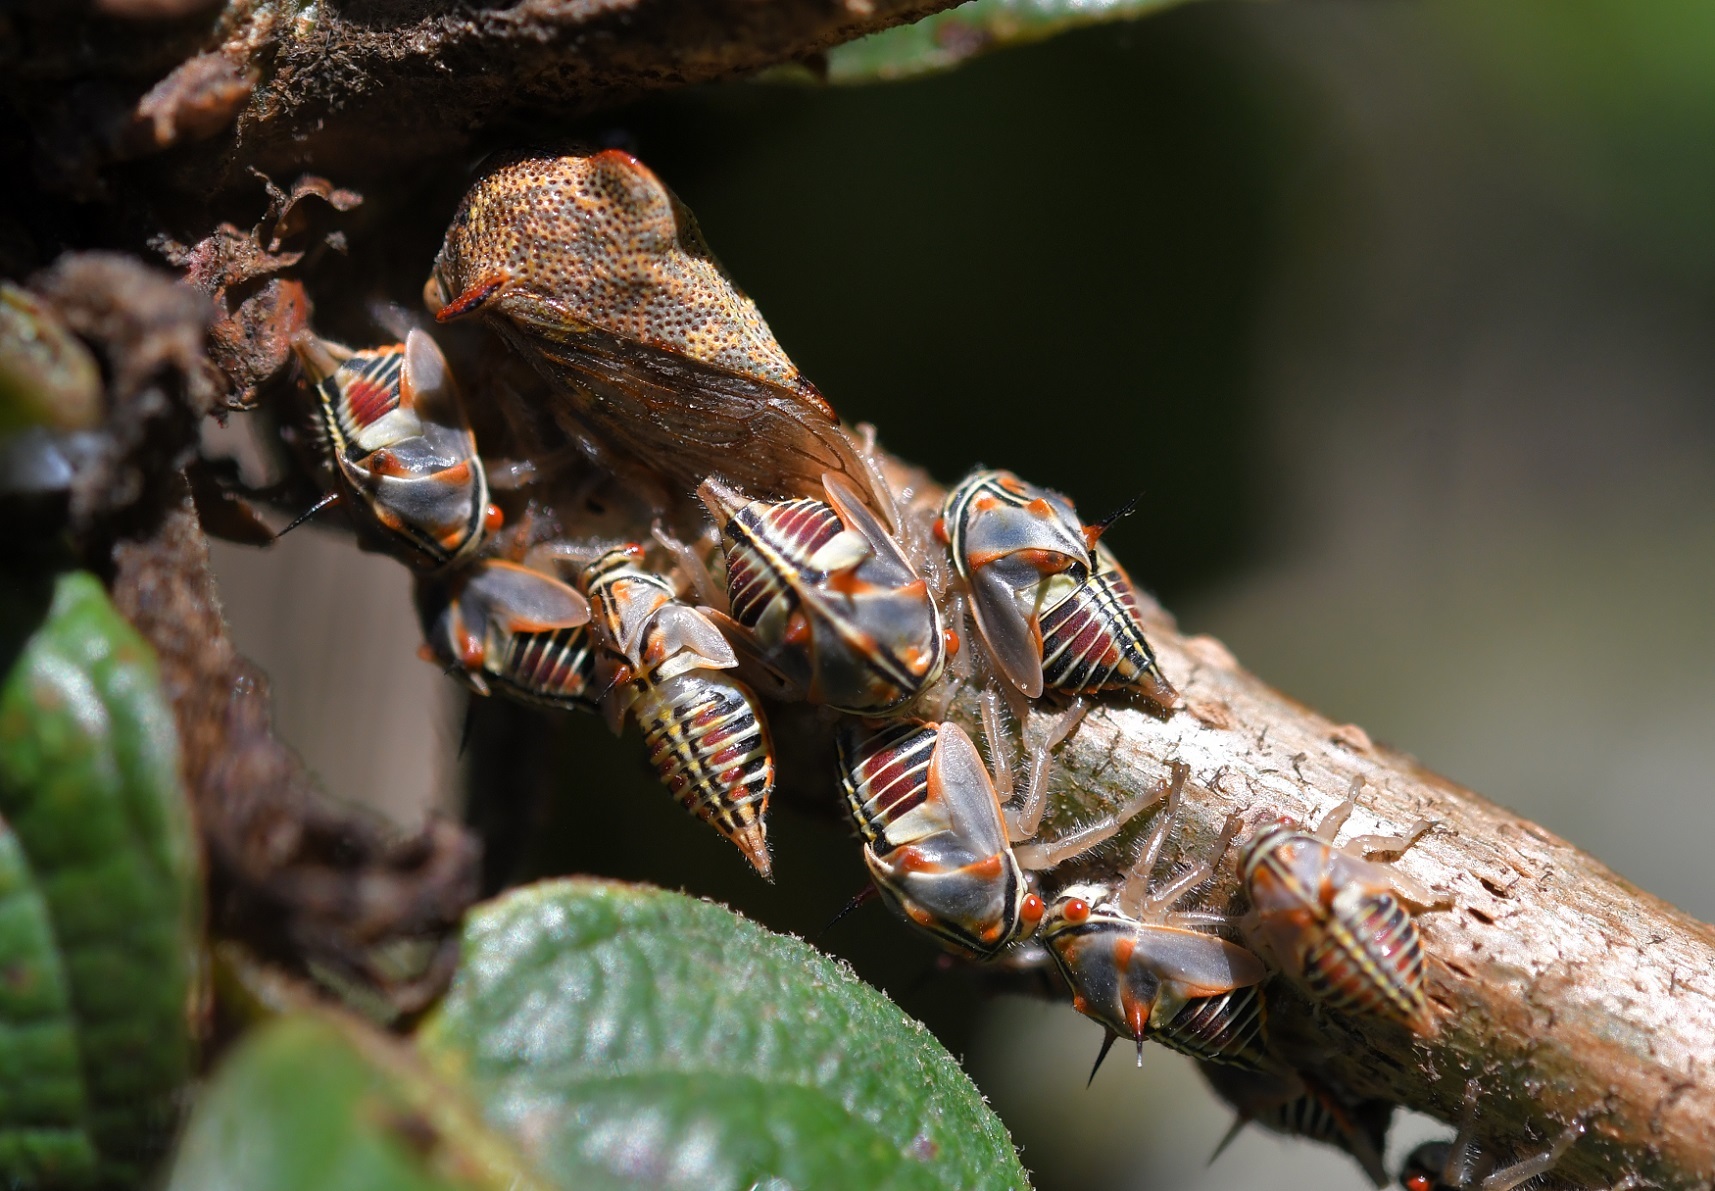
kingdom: Animalia
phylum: Arthropoda
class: Insecta
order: Hemiptera
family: Membracidae
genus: Platycotis
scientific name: Platycotis tuberculata
